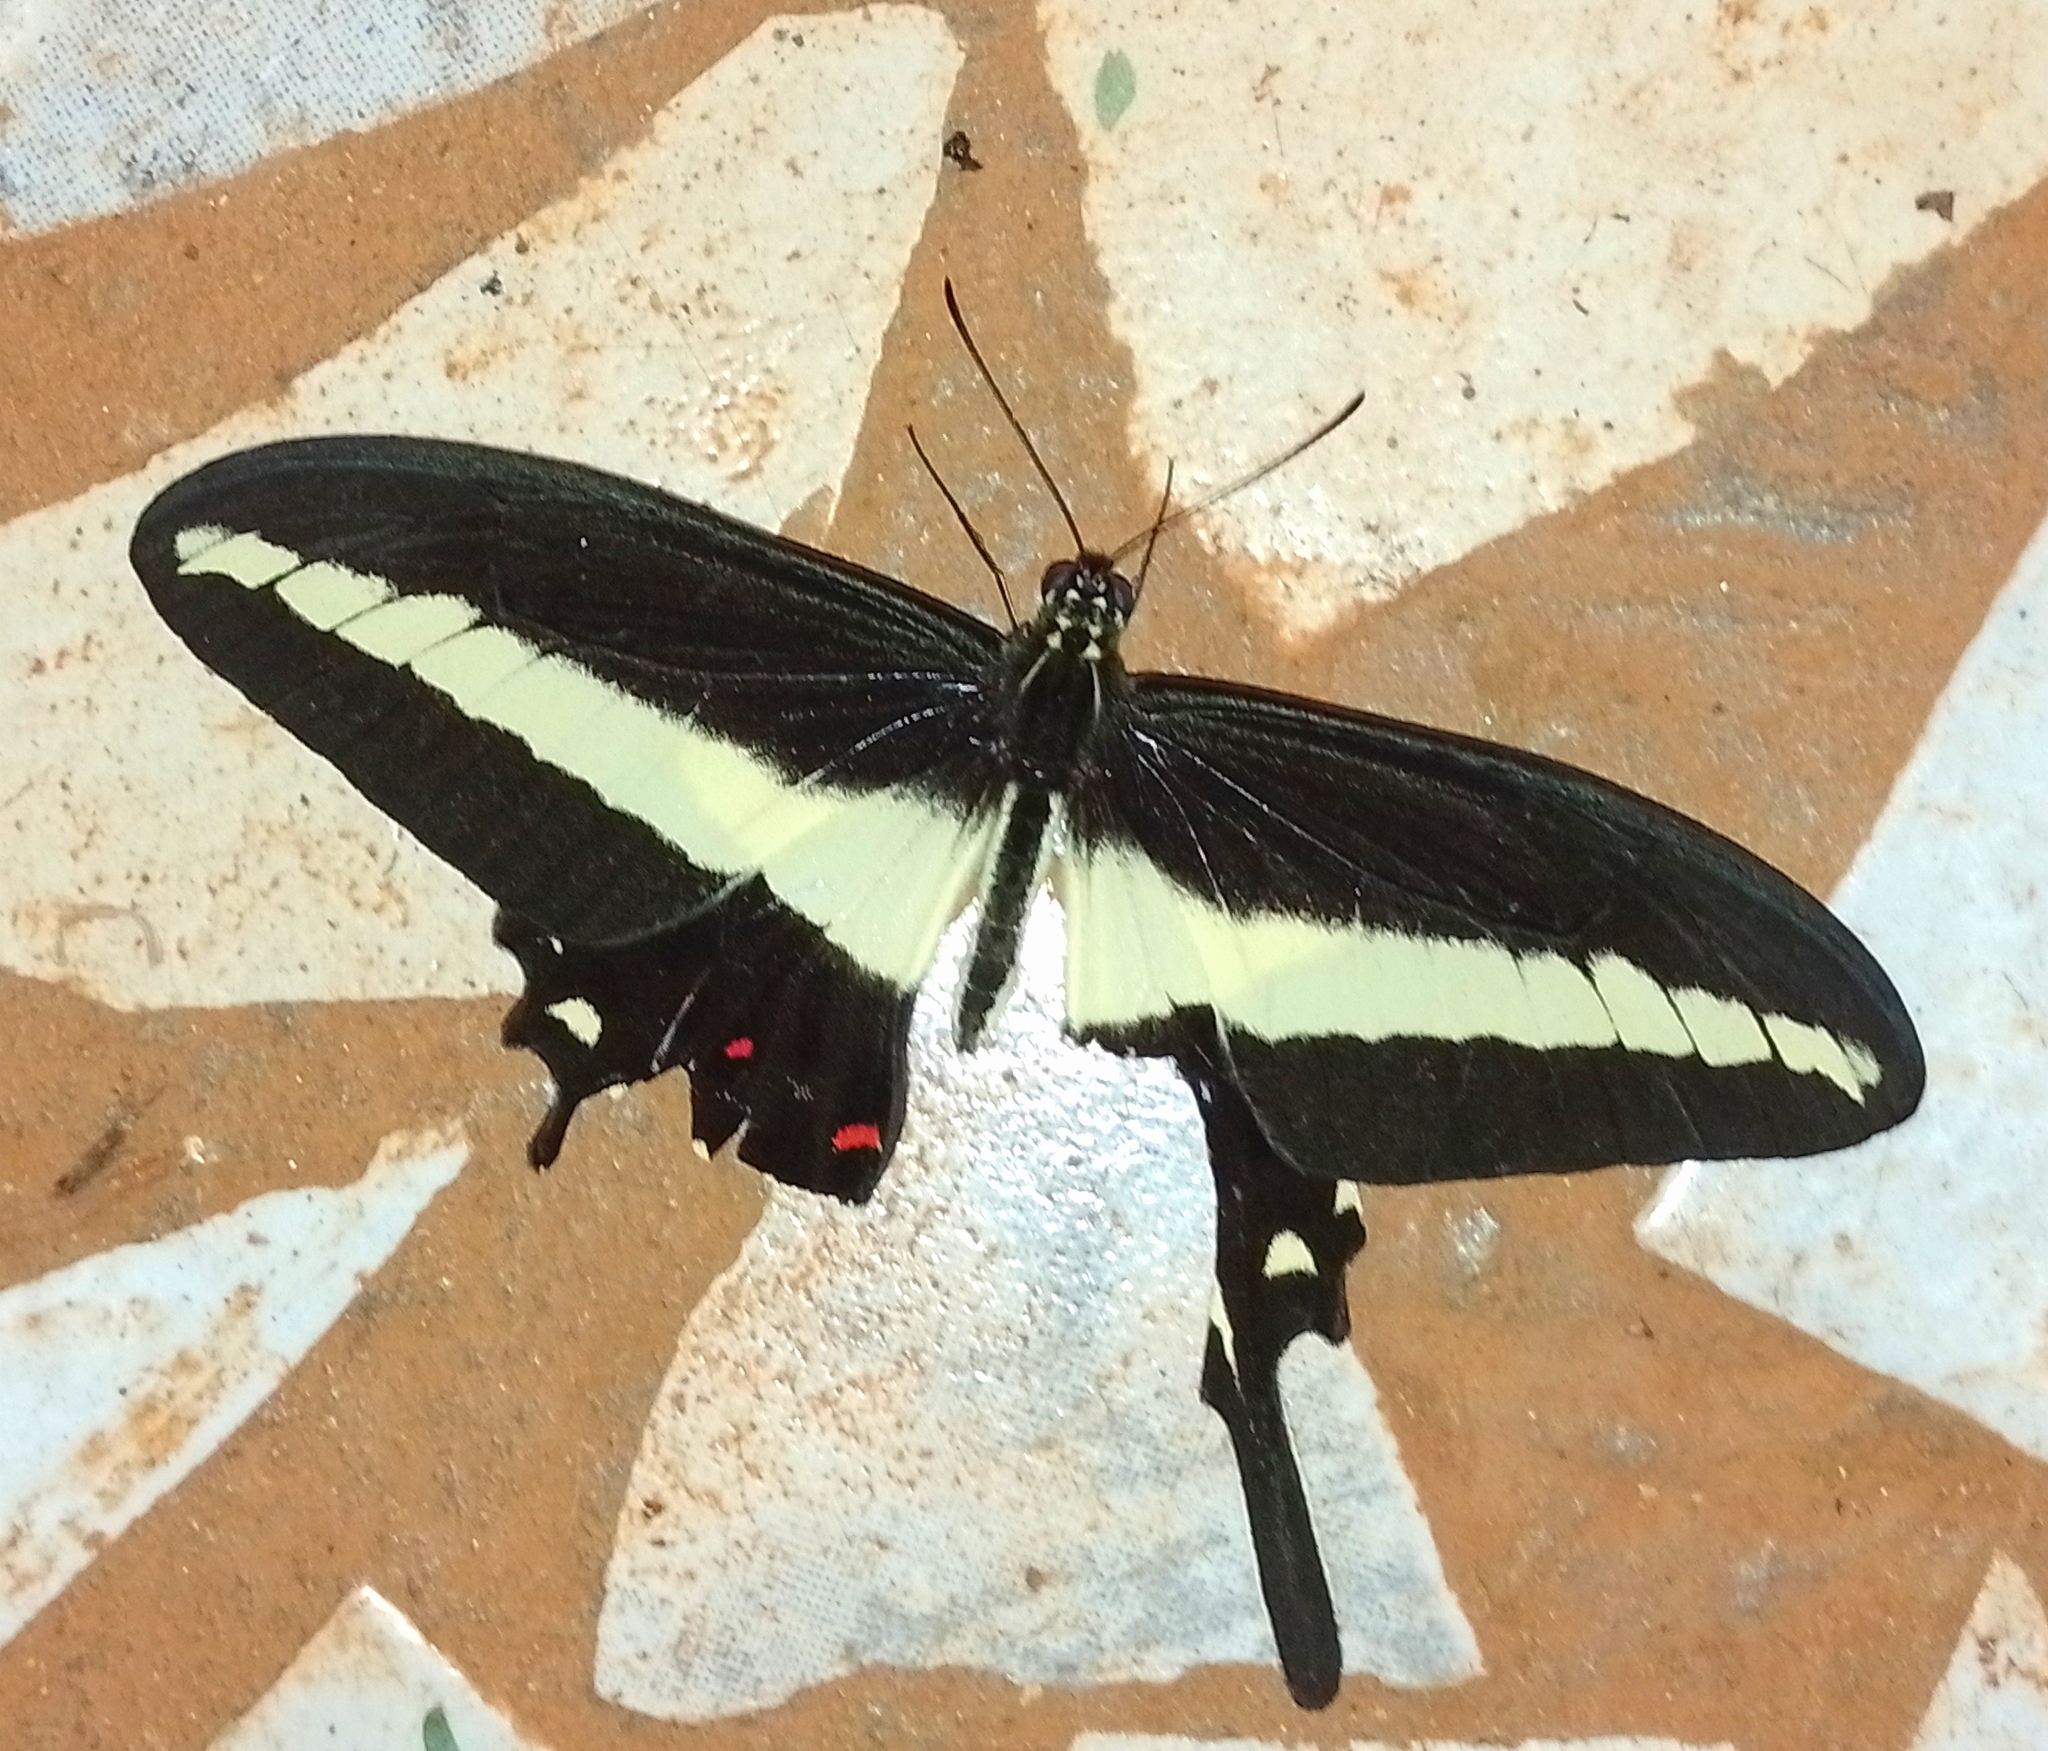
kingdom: Animalia
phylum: Arthropoda
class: Insecta
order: Lepidoptera
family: Papilionidae
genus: Heraclides
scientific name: Heraclides hectorides
